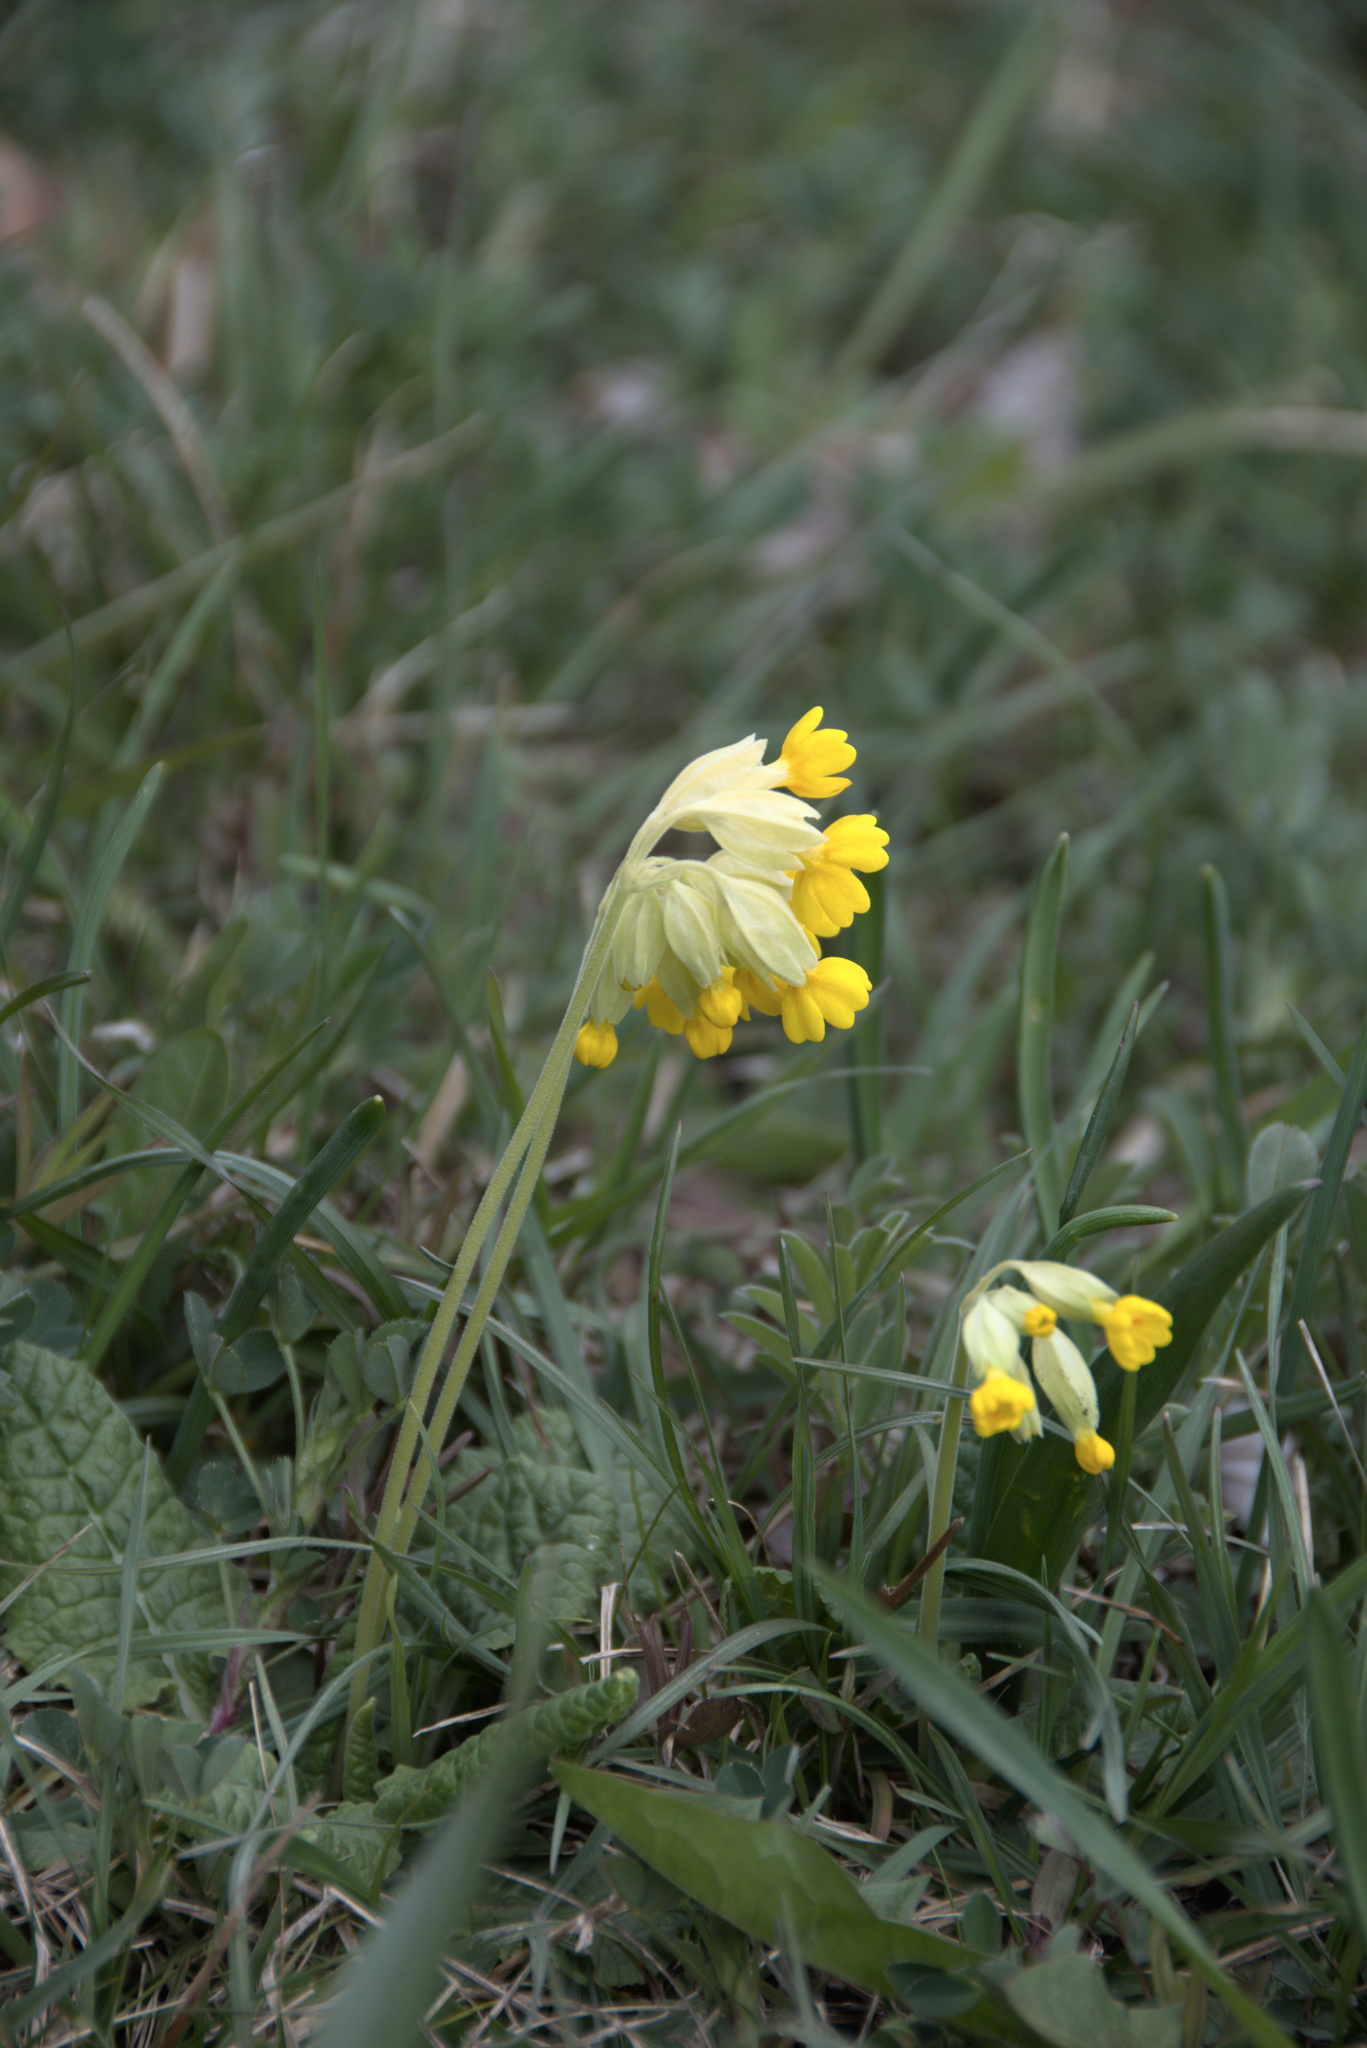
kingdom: Plantae
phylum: Tracheophyta
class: Magnoliopsida
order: Ericales
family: Primulaceae
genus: Primula
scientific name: Primula veris
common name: Cowslip
